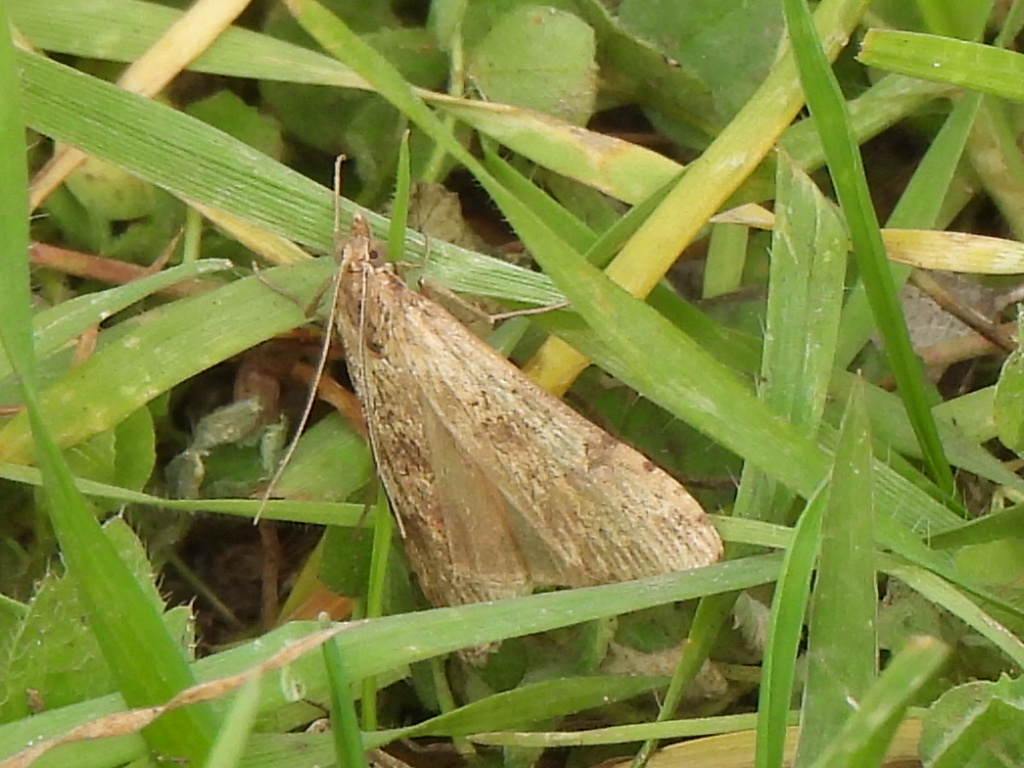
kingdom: Animalia
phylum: Arthropoda
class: Insecta
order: Lepidoptera
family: Crambidae
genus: Nomophila
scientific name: Nomophila nearctica
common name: American rush veneer
